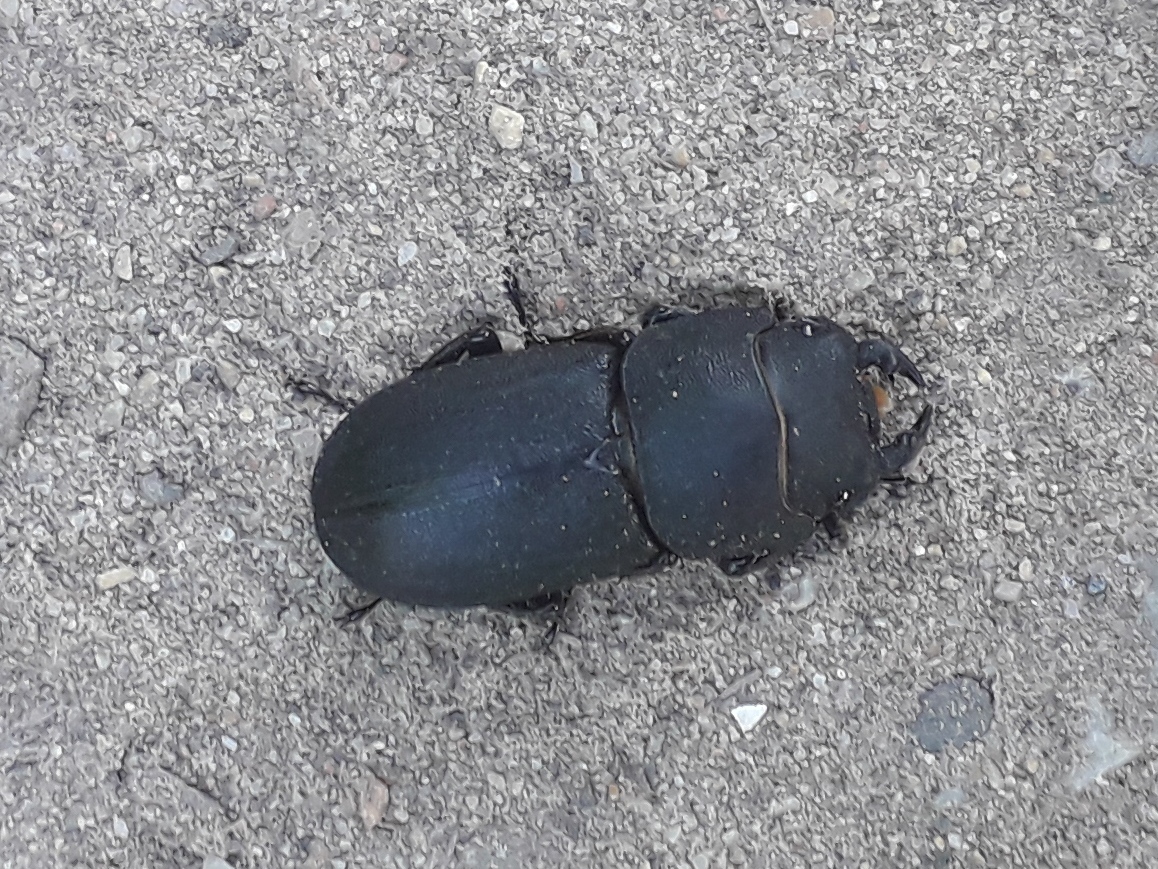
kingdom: Animalia
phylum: Arthropoda
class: Insecta
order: Coleoptera
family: Lucanidae
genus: Dorcus
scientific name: Dorcus parallelipipedus
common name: Lesser stag beetle
